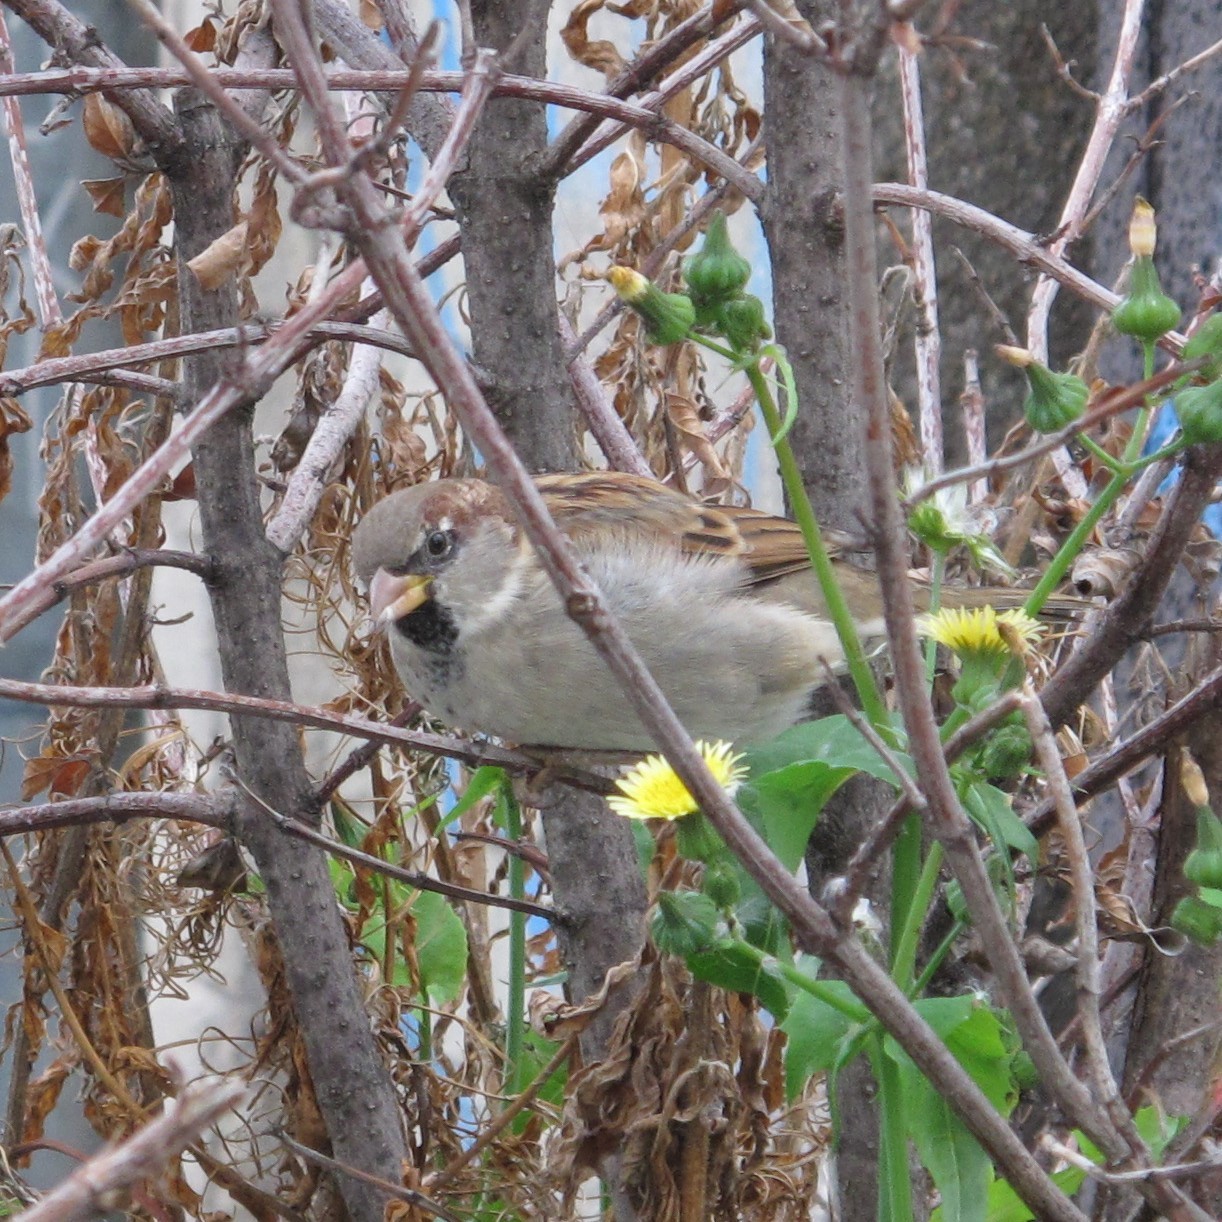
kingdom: Animalia
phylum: Chordata
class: Aves
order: Passeriformes
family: Passeridae
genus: Passer
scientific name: Passer domesticus
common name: House sparrow
